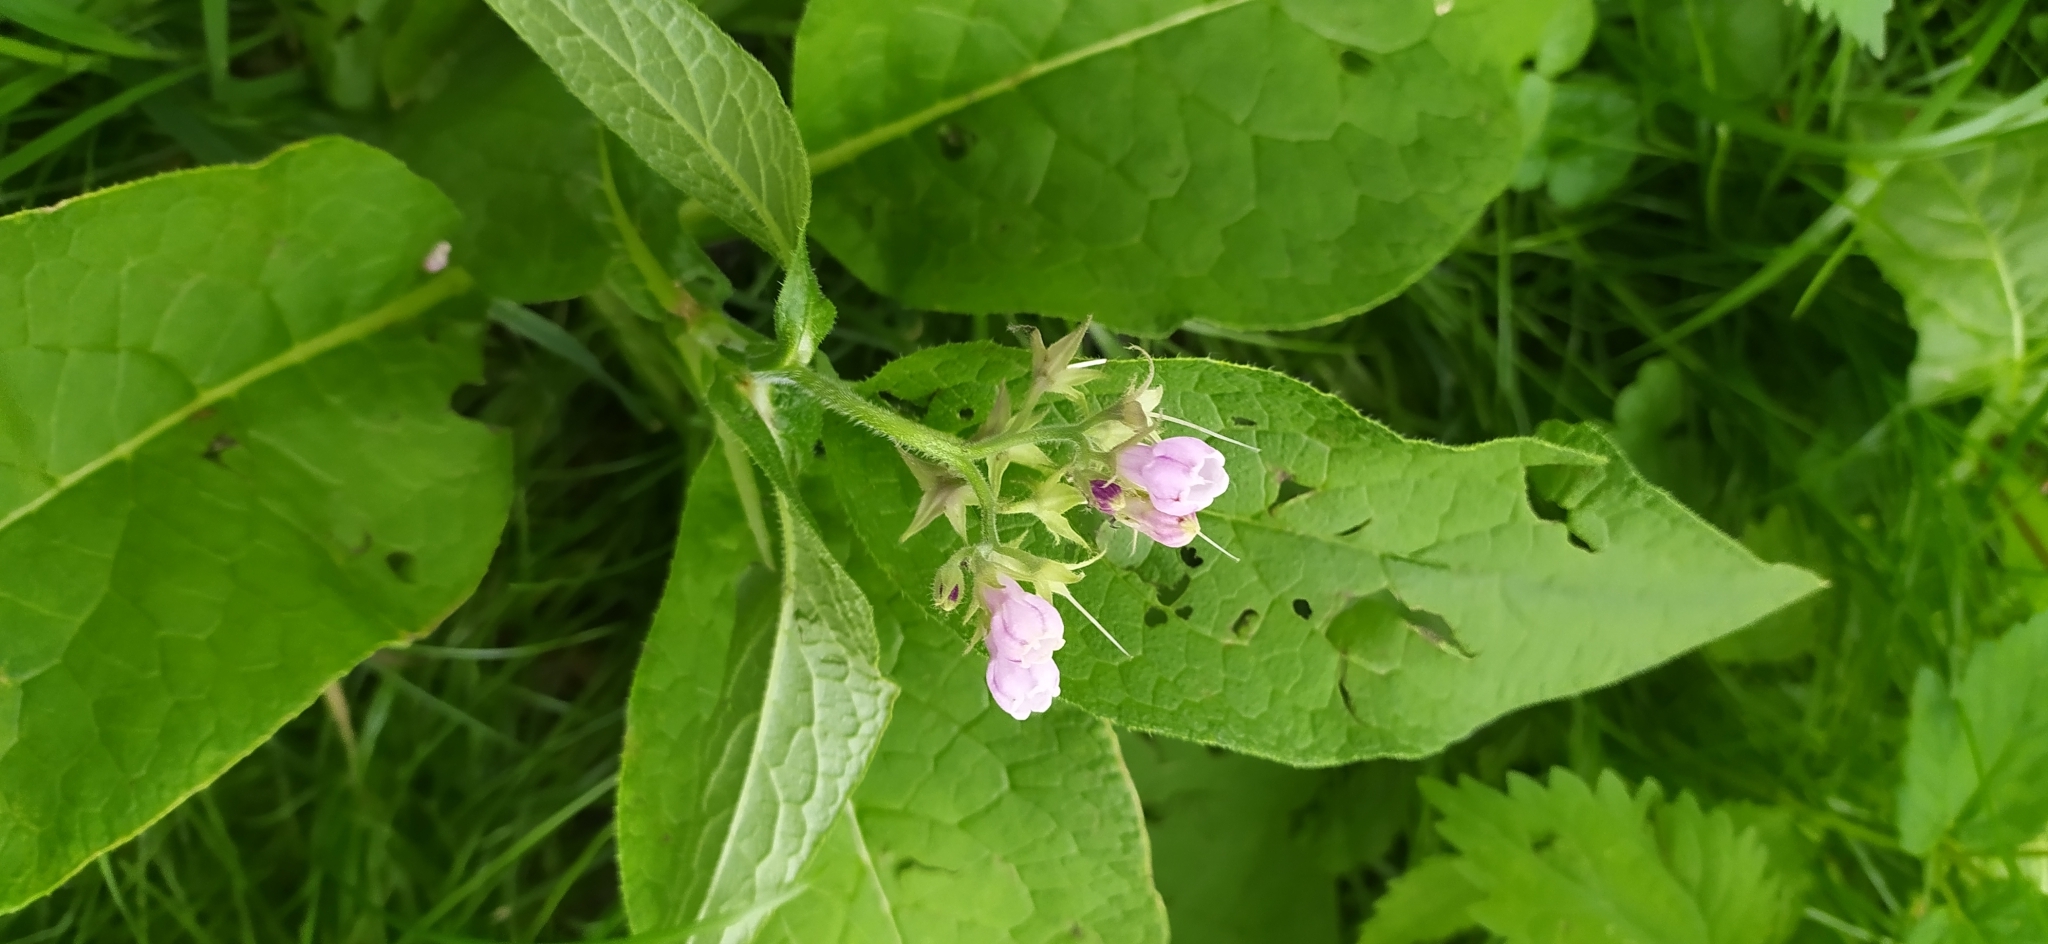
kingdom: Plantae
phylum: Tracheophyta
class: Magnoliopsida
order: Boraginales
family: Boraginaceae
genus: Symphytum
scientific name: Symphytum officinale
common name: Common comfrey
